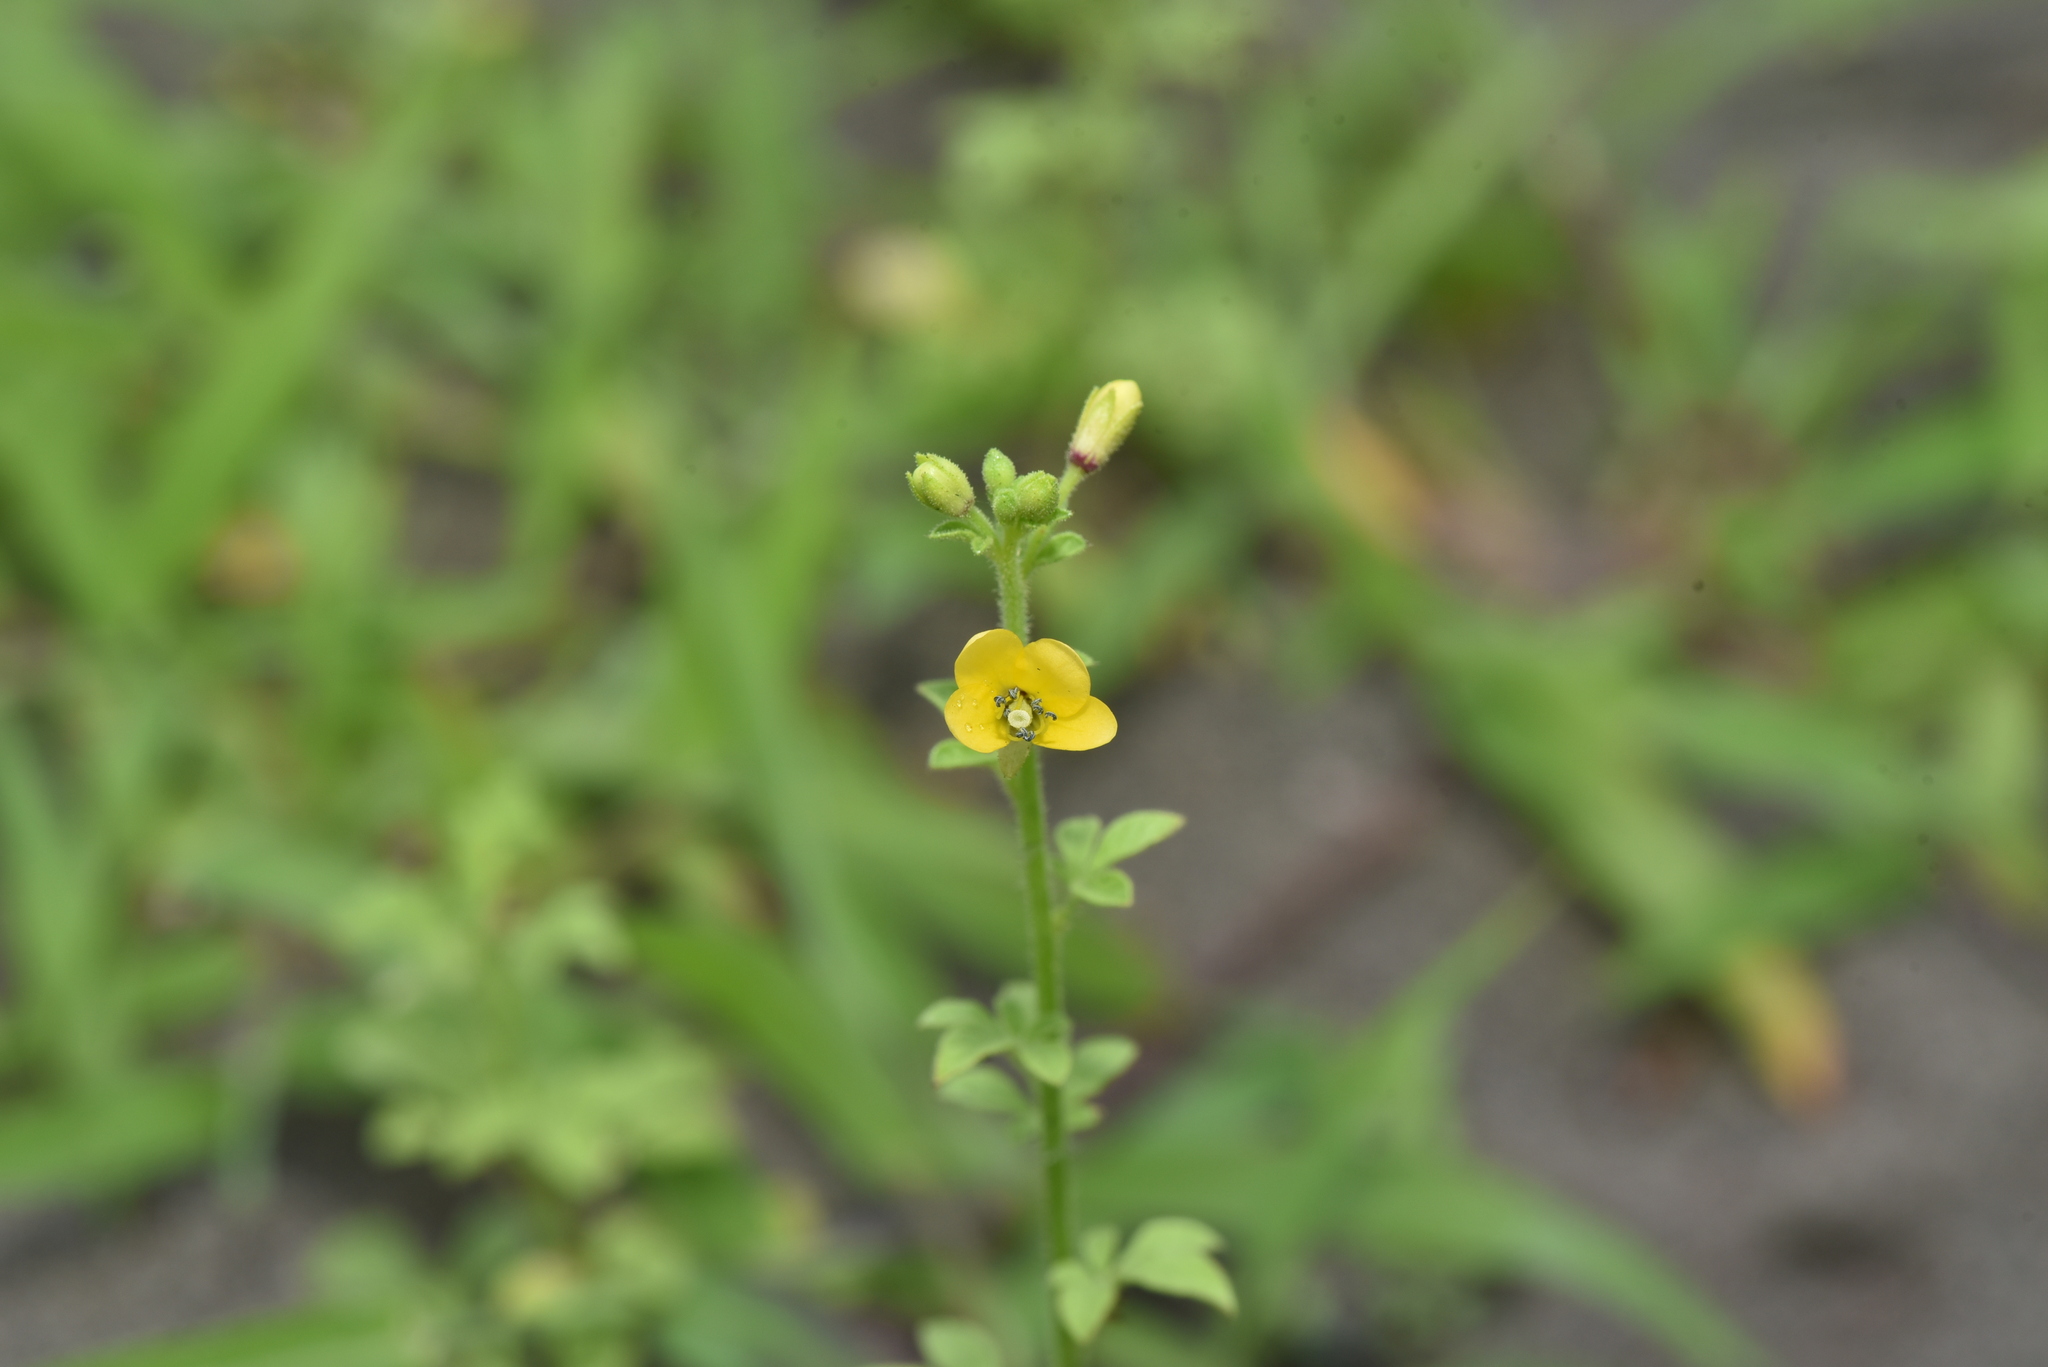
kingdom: Plantae
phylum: Tracheophyta
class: Magnoliopsida
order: Brassicales
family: Cleomaceae
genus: Arivela
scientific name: Arivela viscosa
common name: Asian spiderflower
